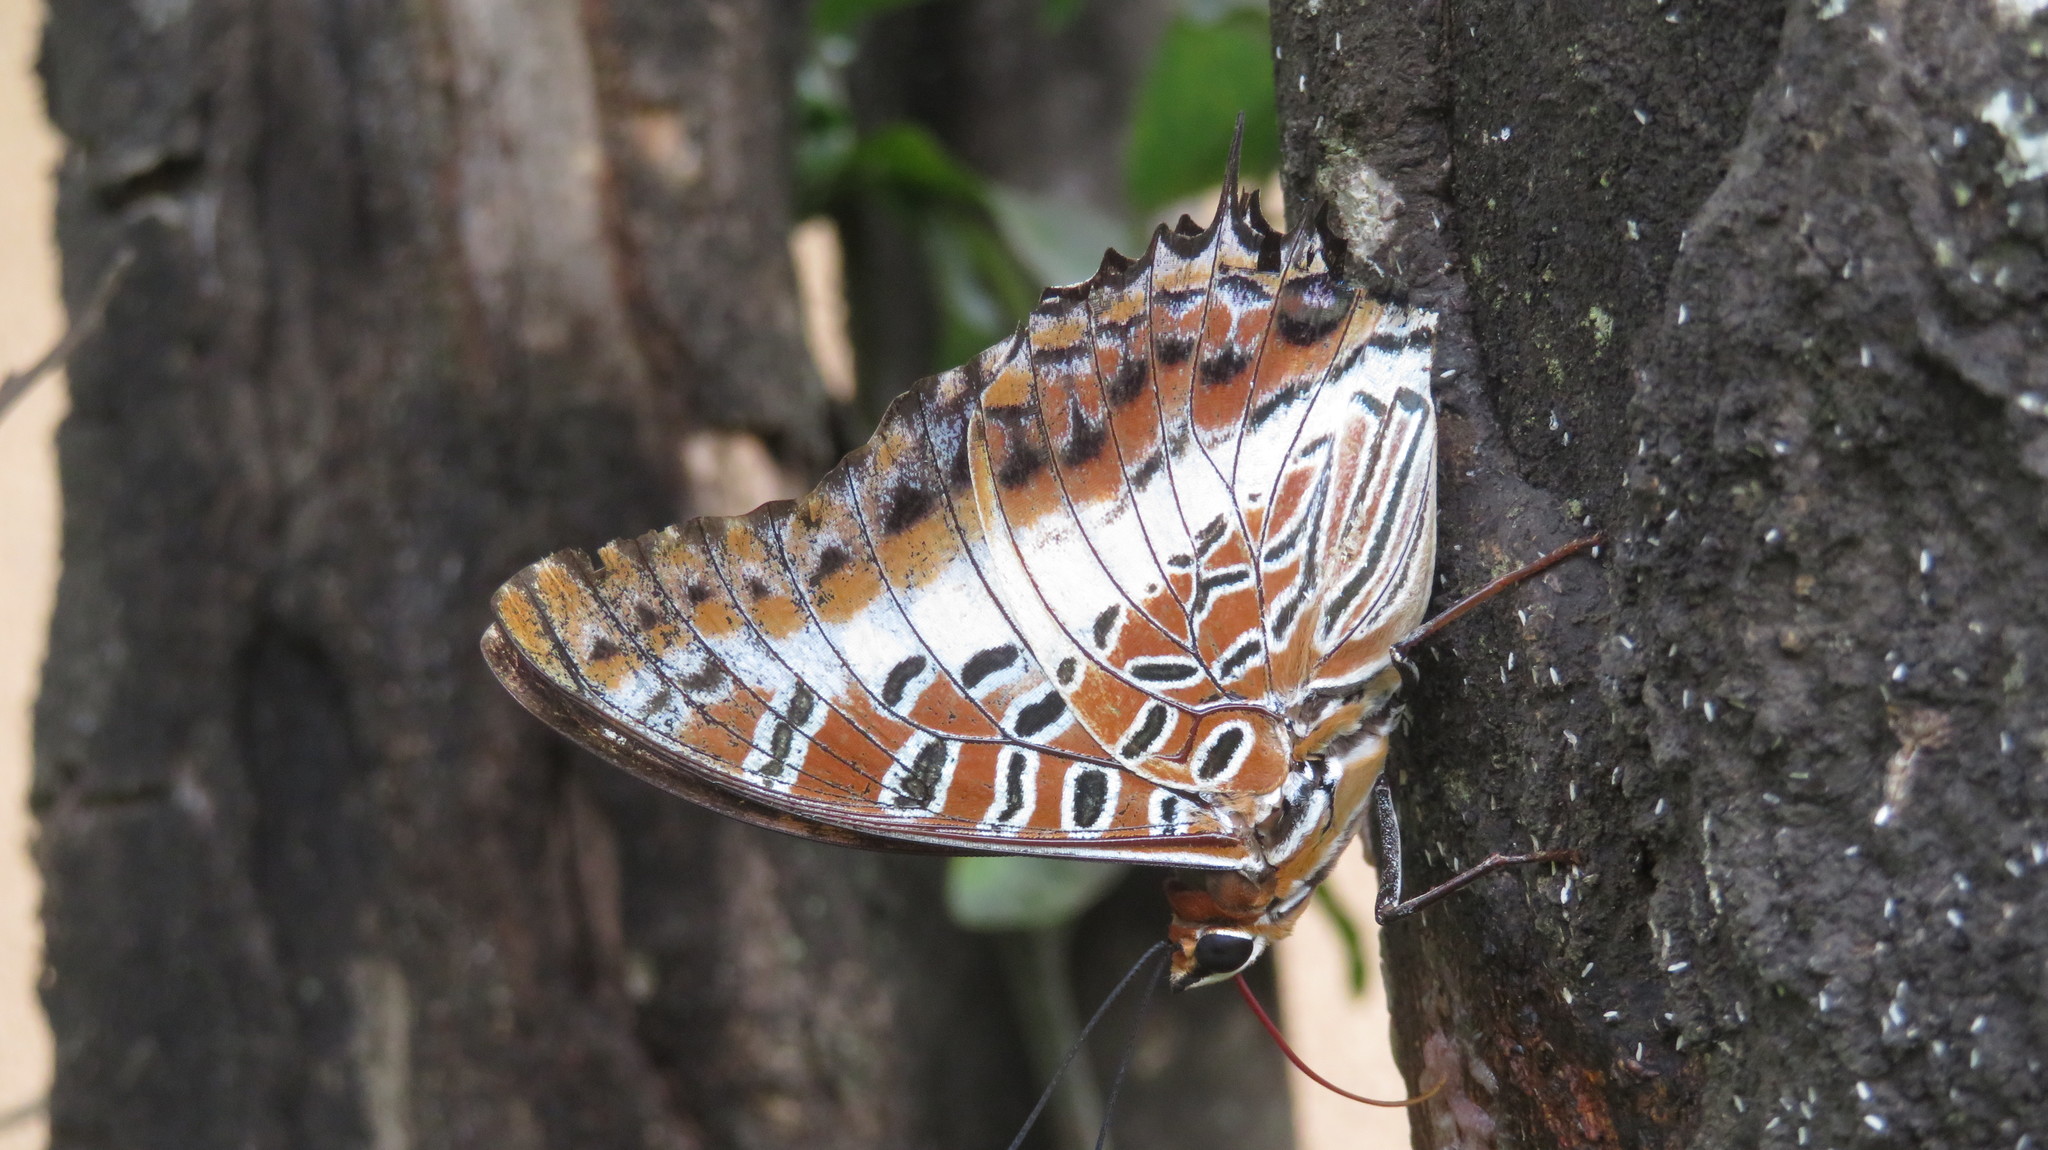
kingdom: Animalia
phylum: Arthropoda
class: Insecta
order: Lepidoptera
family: Nymphalidae
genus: Charaxes
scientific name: Charaxes brutus
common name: White-barred charaxes
